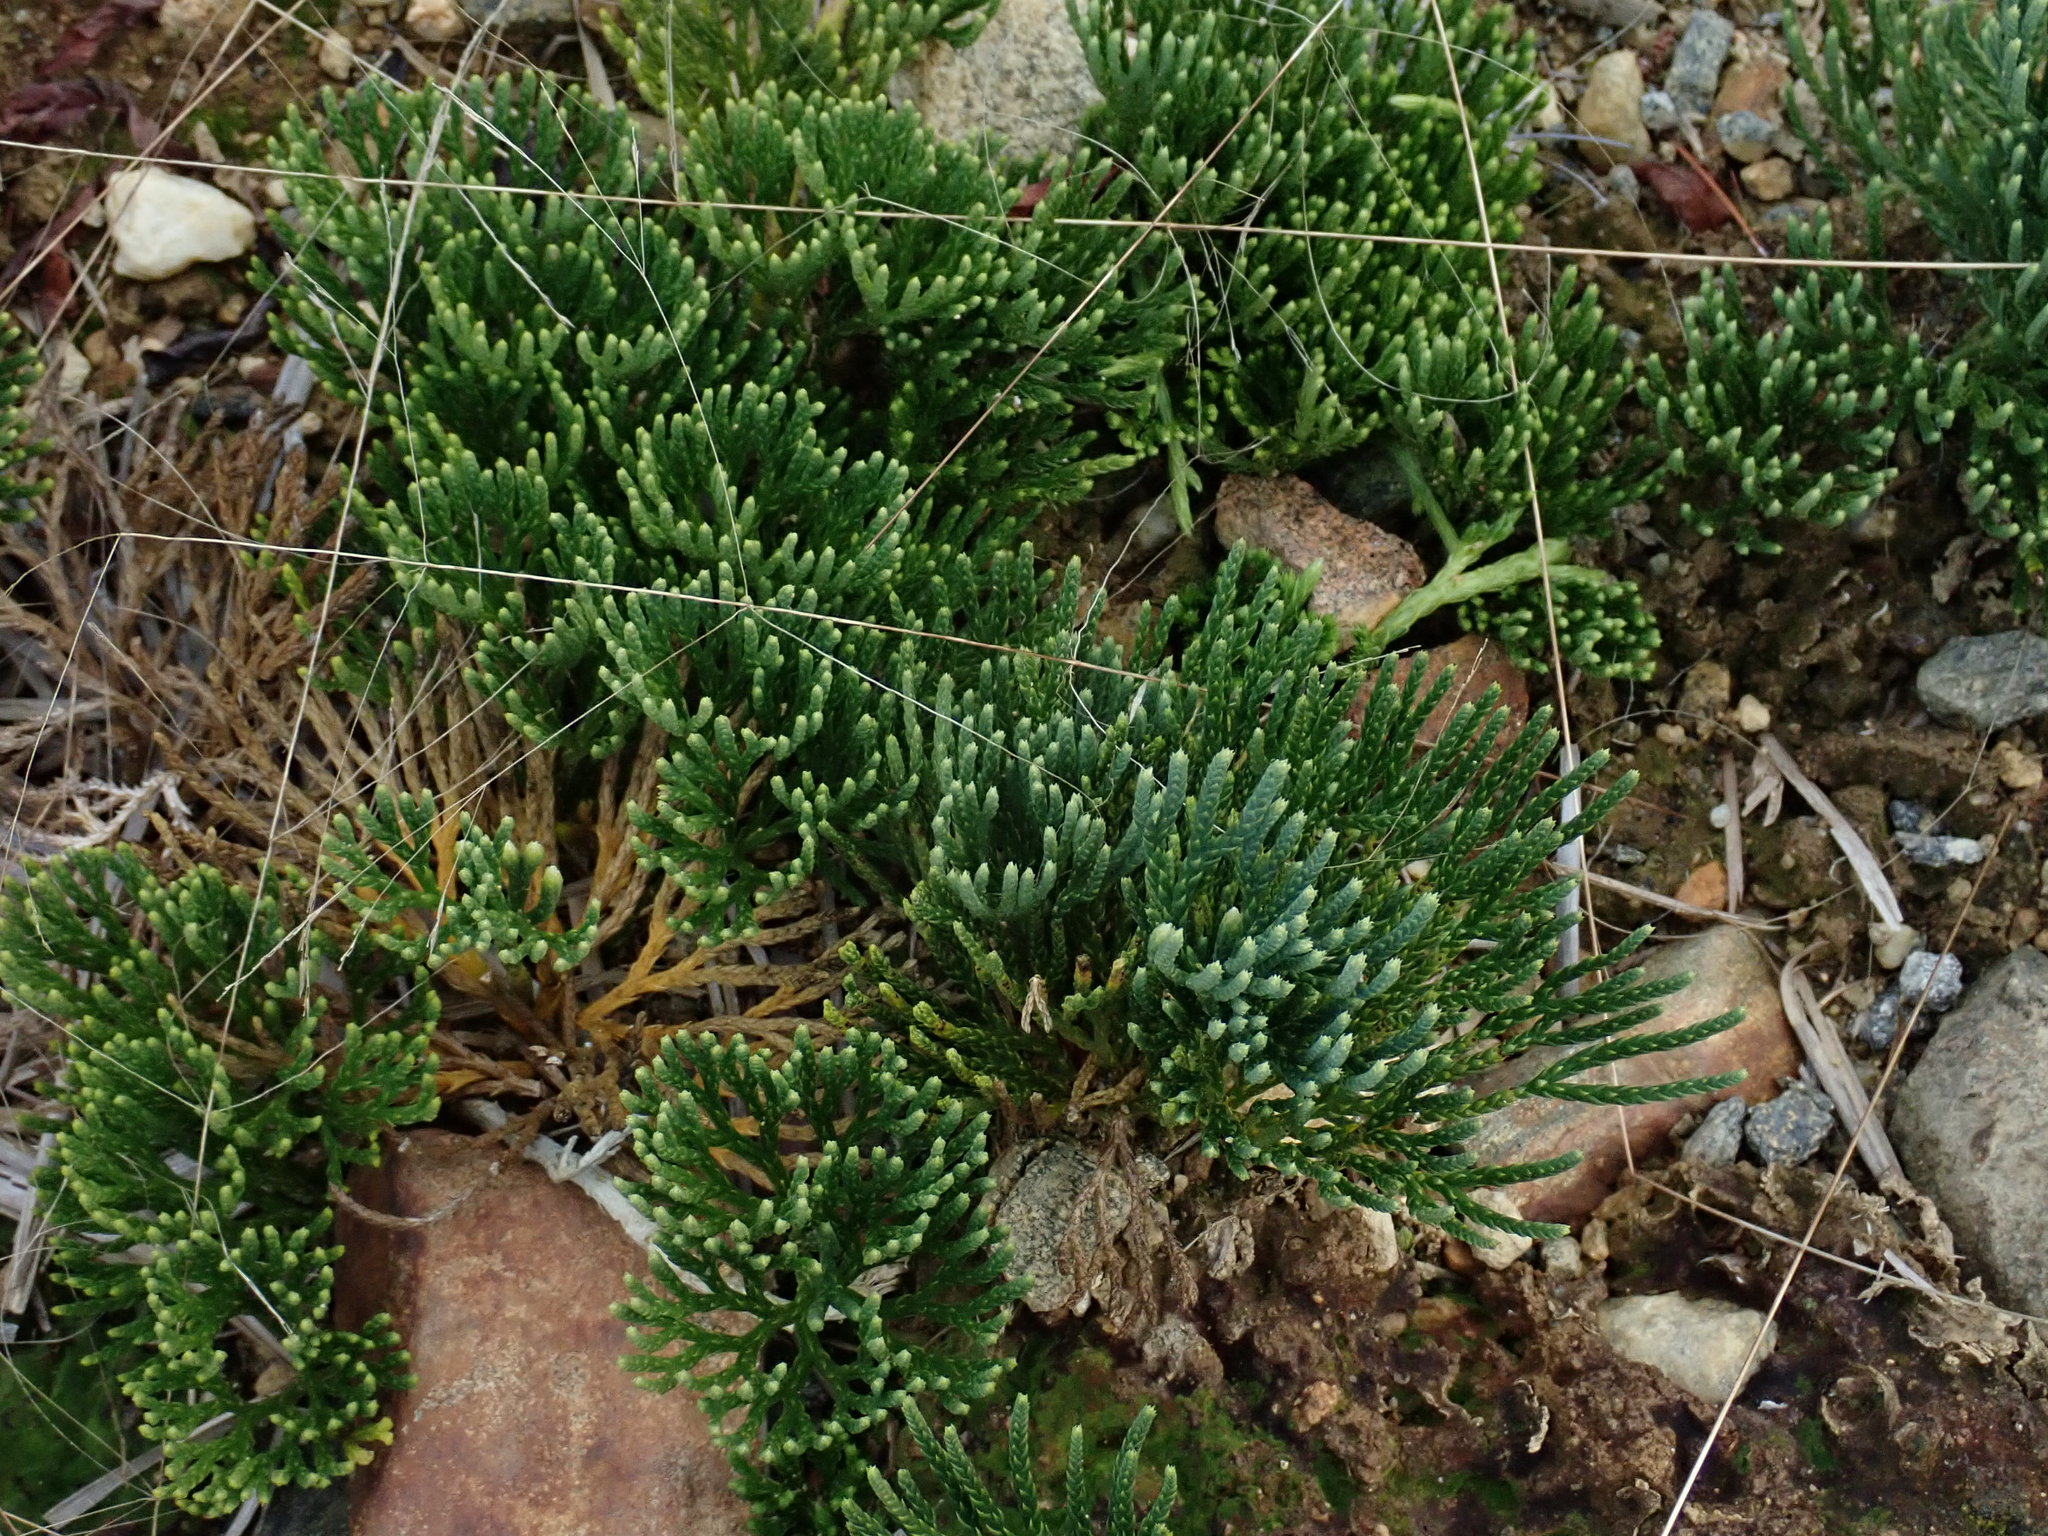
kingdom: Plantae
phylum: Tracheophyta
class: Lycopodiopsida
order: Lycopodiales
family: Lycopodiaceae
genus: Diphasiastrum
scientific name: Diphasiastrum tristachyum
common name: Blue ground-cedar
